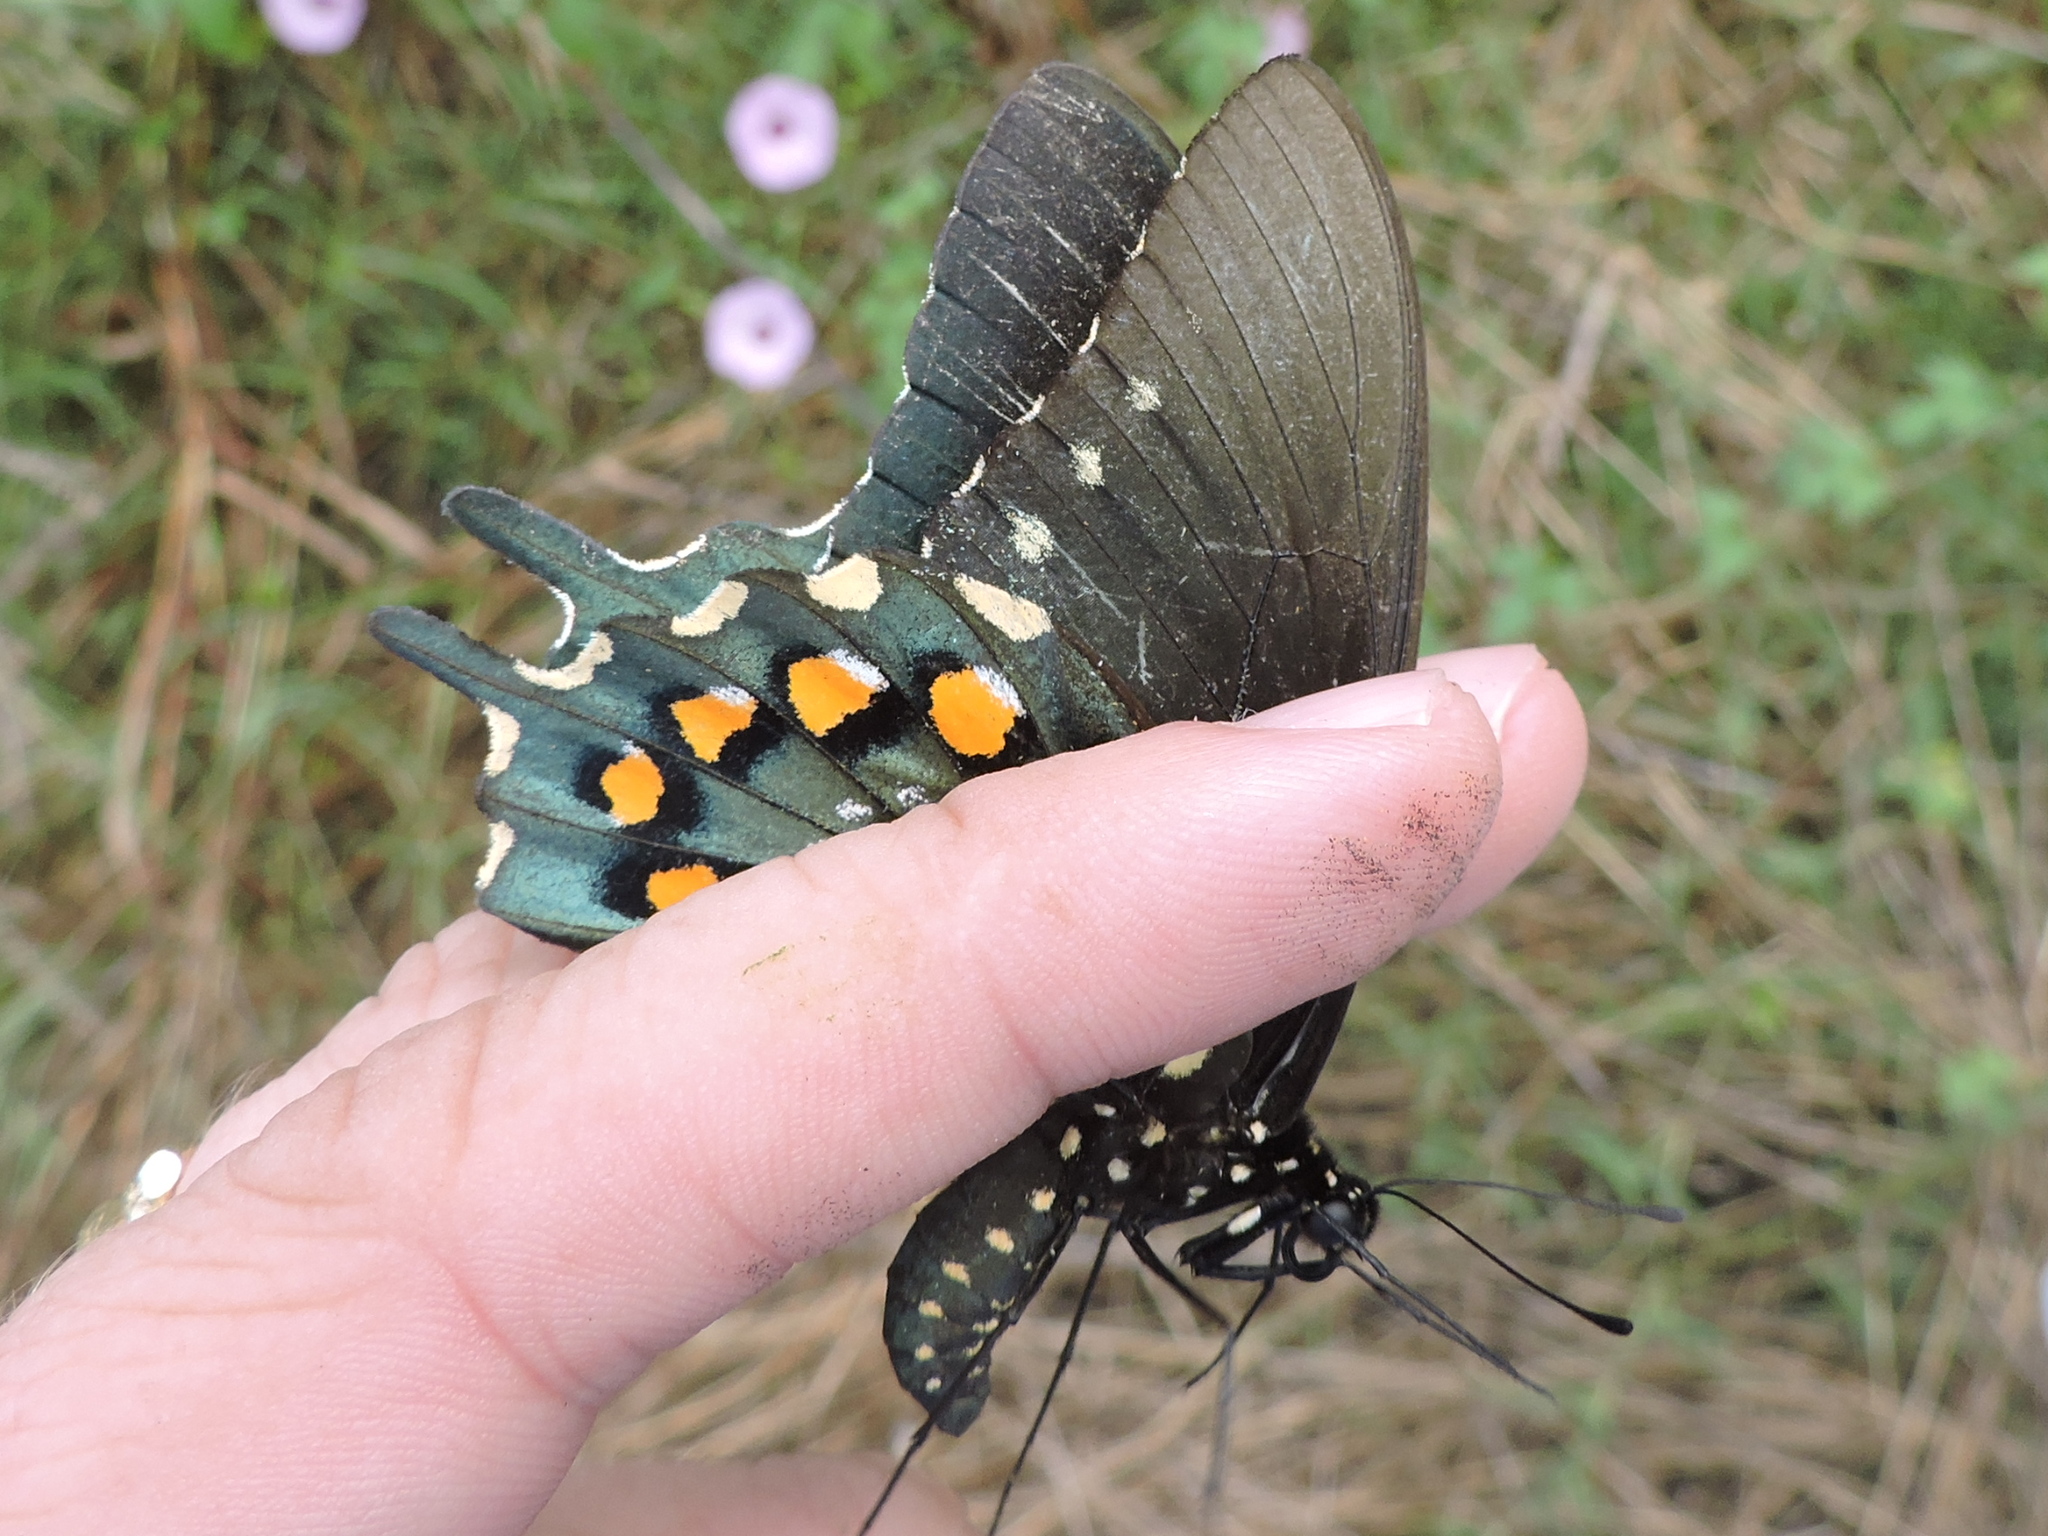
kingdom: Animalia
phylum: Arthropoda
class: Insecta
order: Lepidoptera
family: Papilionidae
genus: Battus
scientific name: Battus philenor
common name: Pipevine swallowtail
